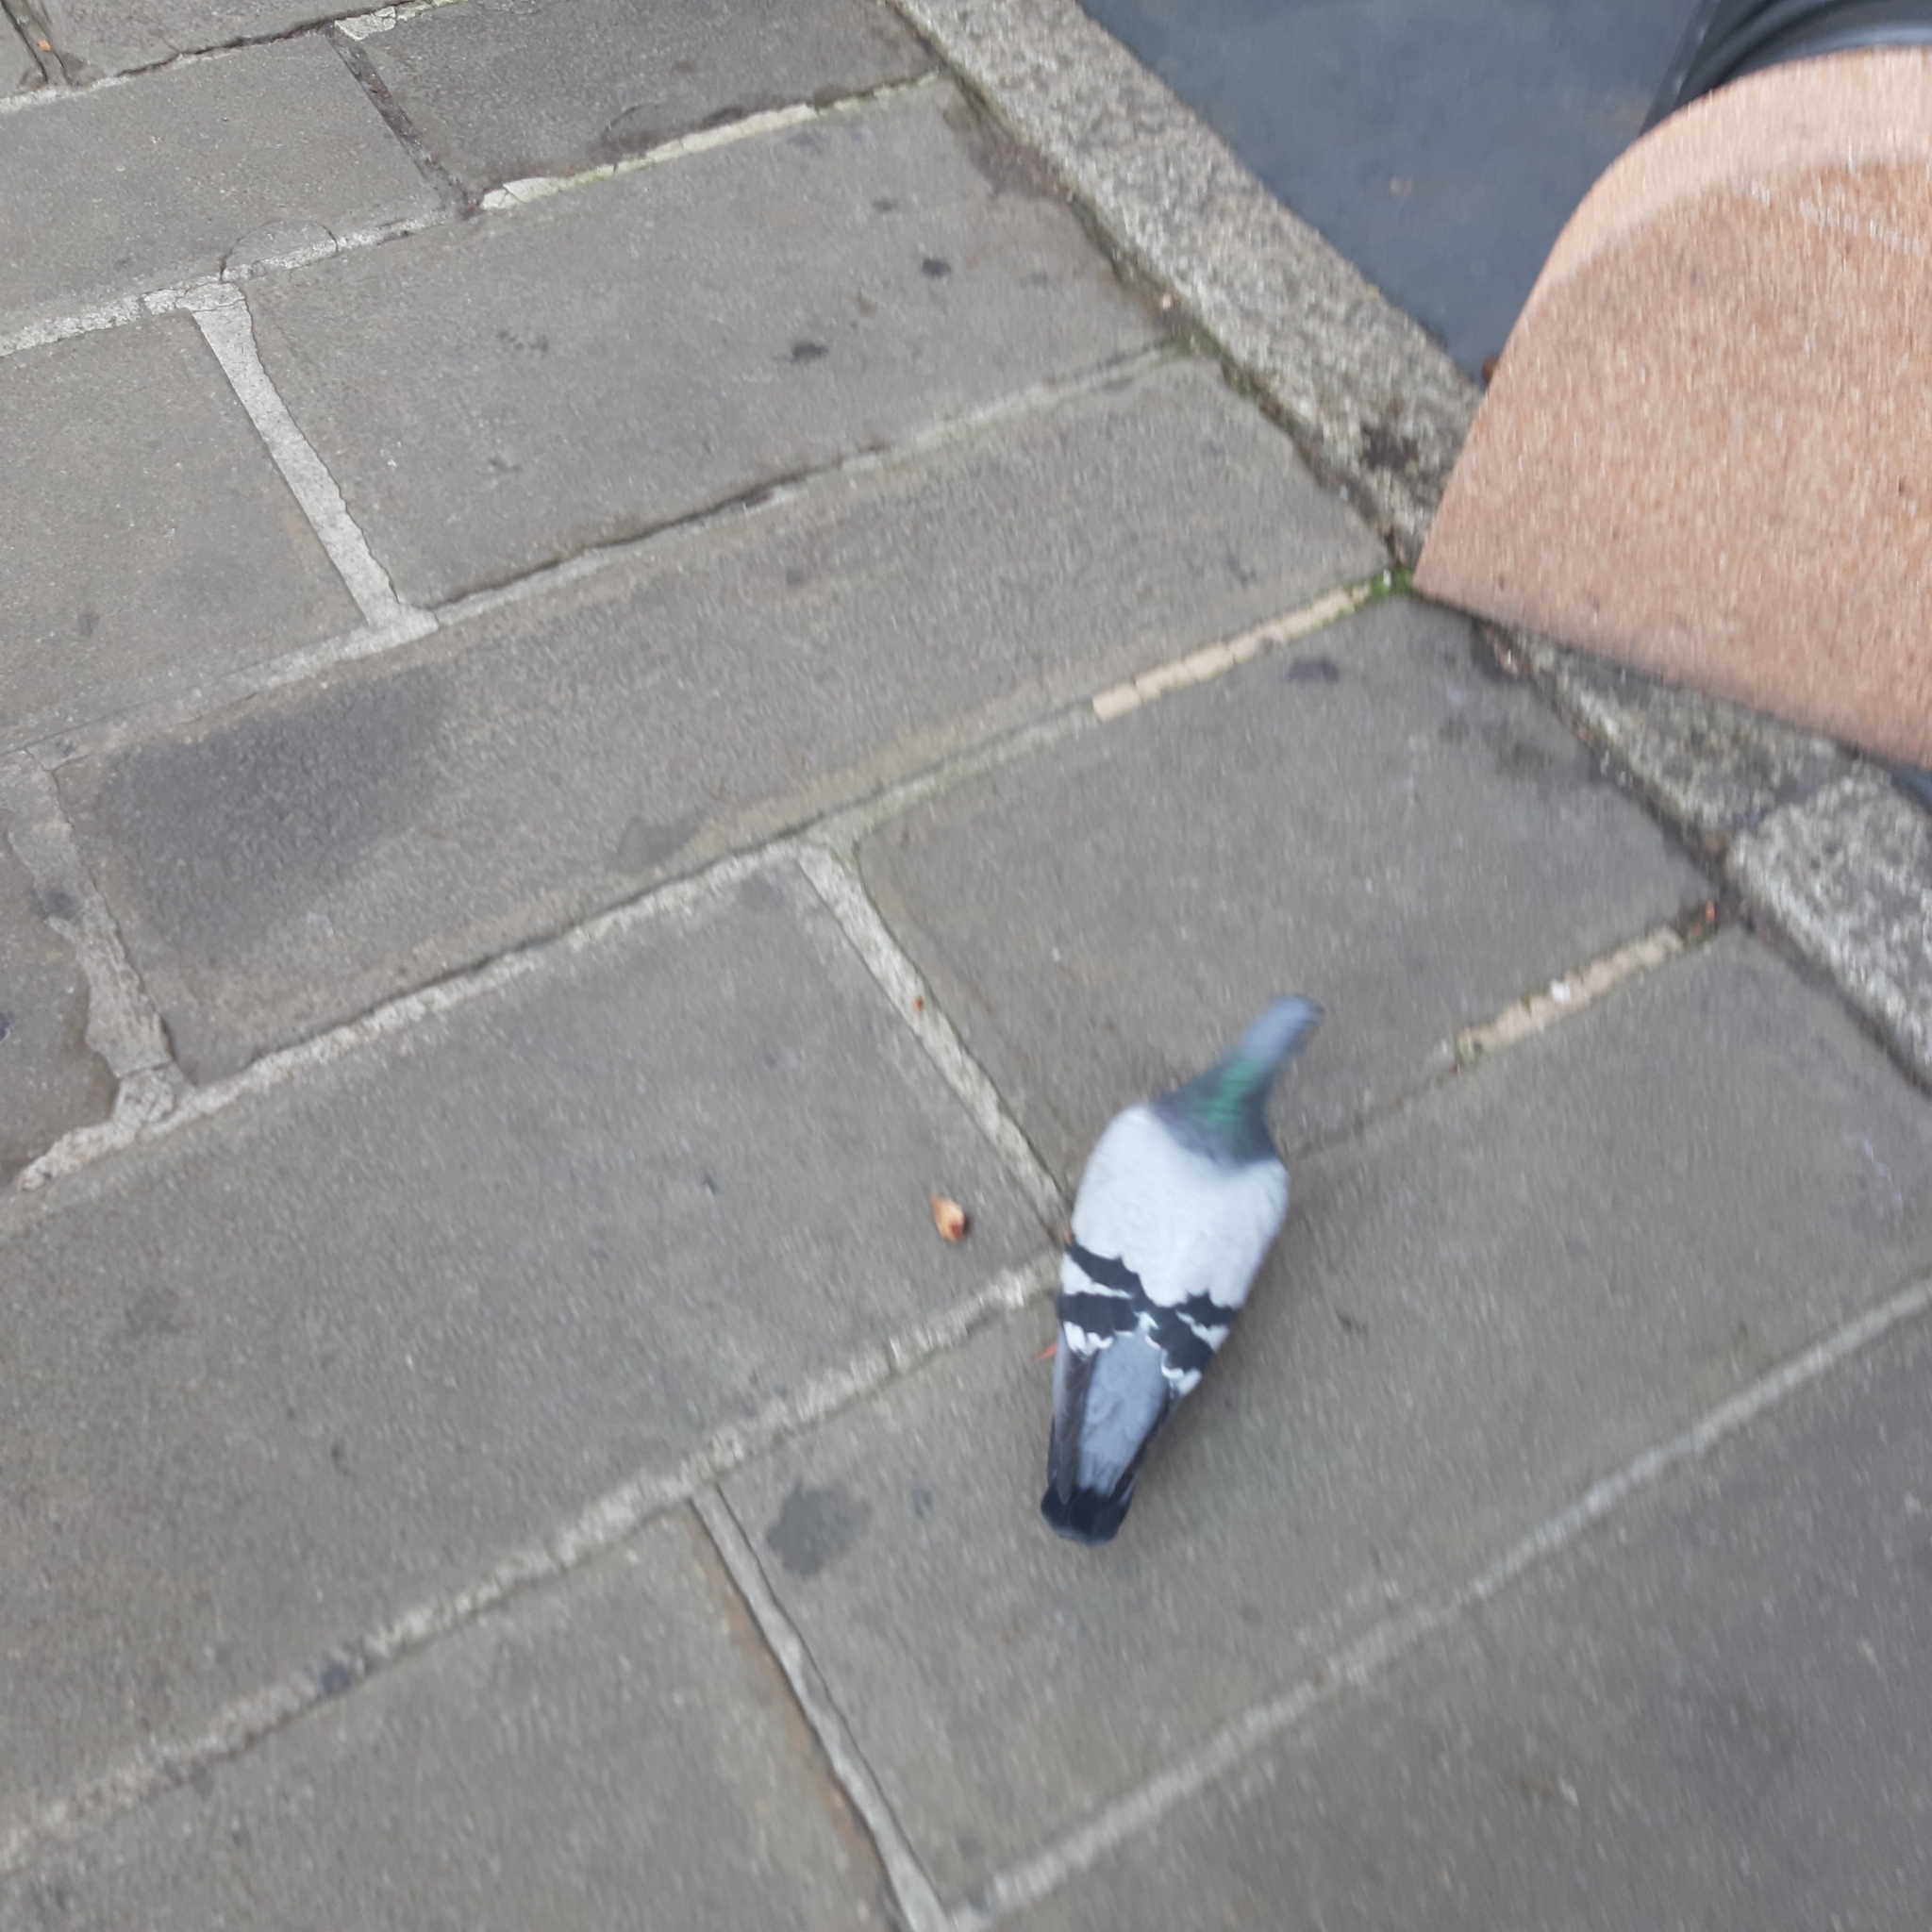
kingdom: Animalia
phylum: Chordata
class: Aves
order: Columbiformes
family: Columbidae
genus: Columba
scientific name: Columba livia
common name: Rock pigeon
